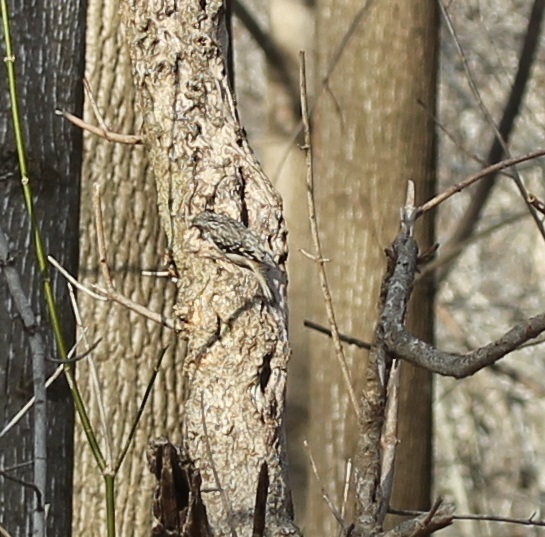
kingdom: Animalia
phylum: Chordata
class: Aves
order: Passeriformes
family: Certhiidae
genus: Certhia
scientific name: Certhia americana
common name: Brown creeper
